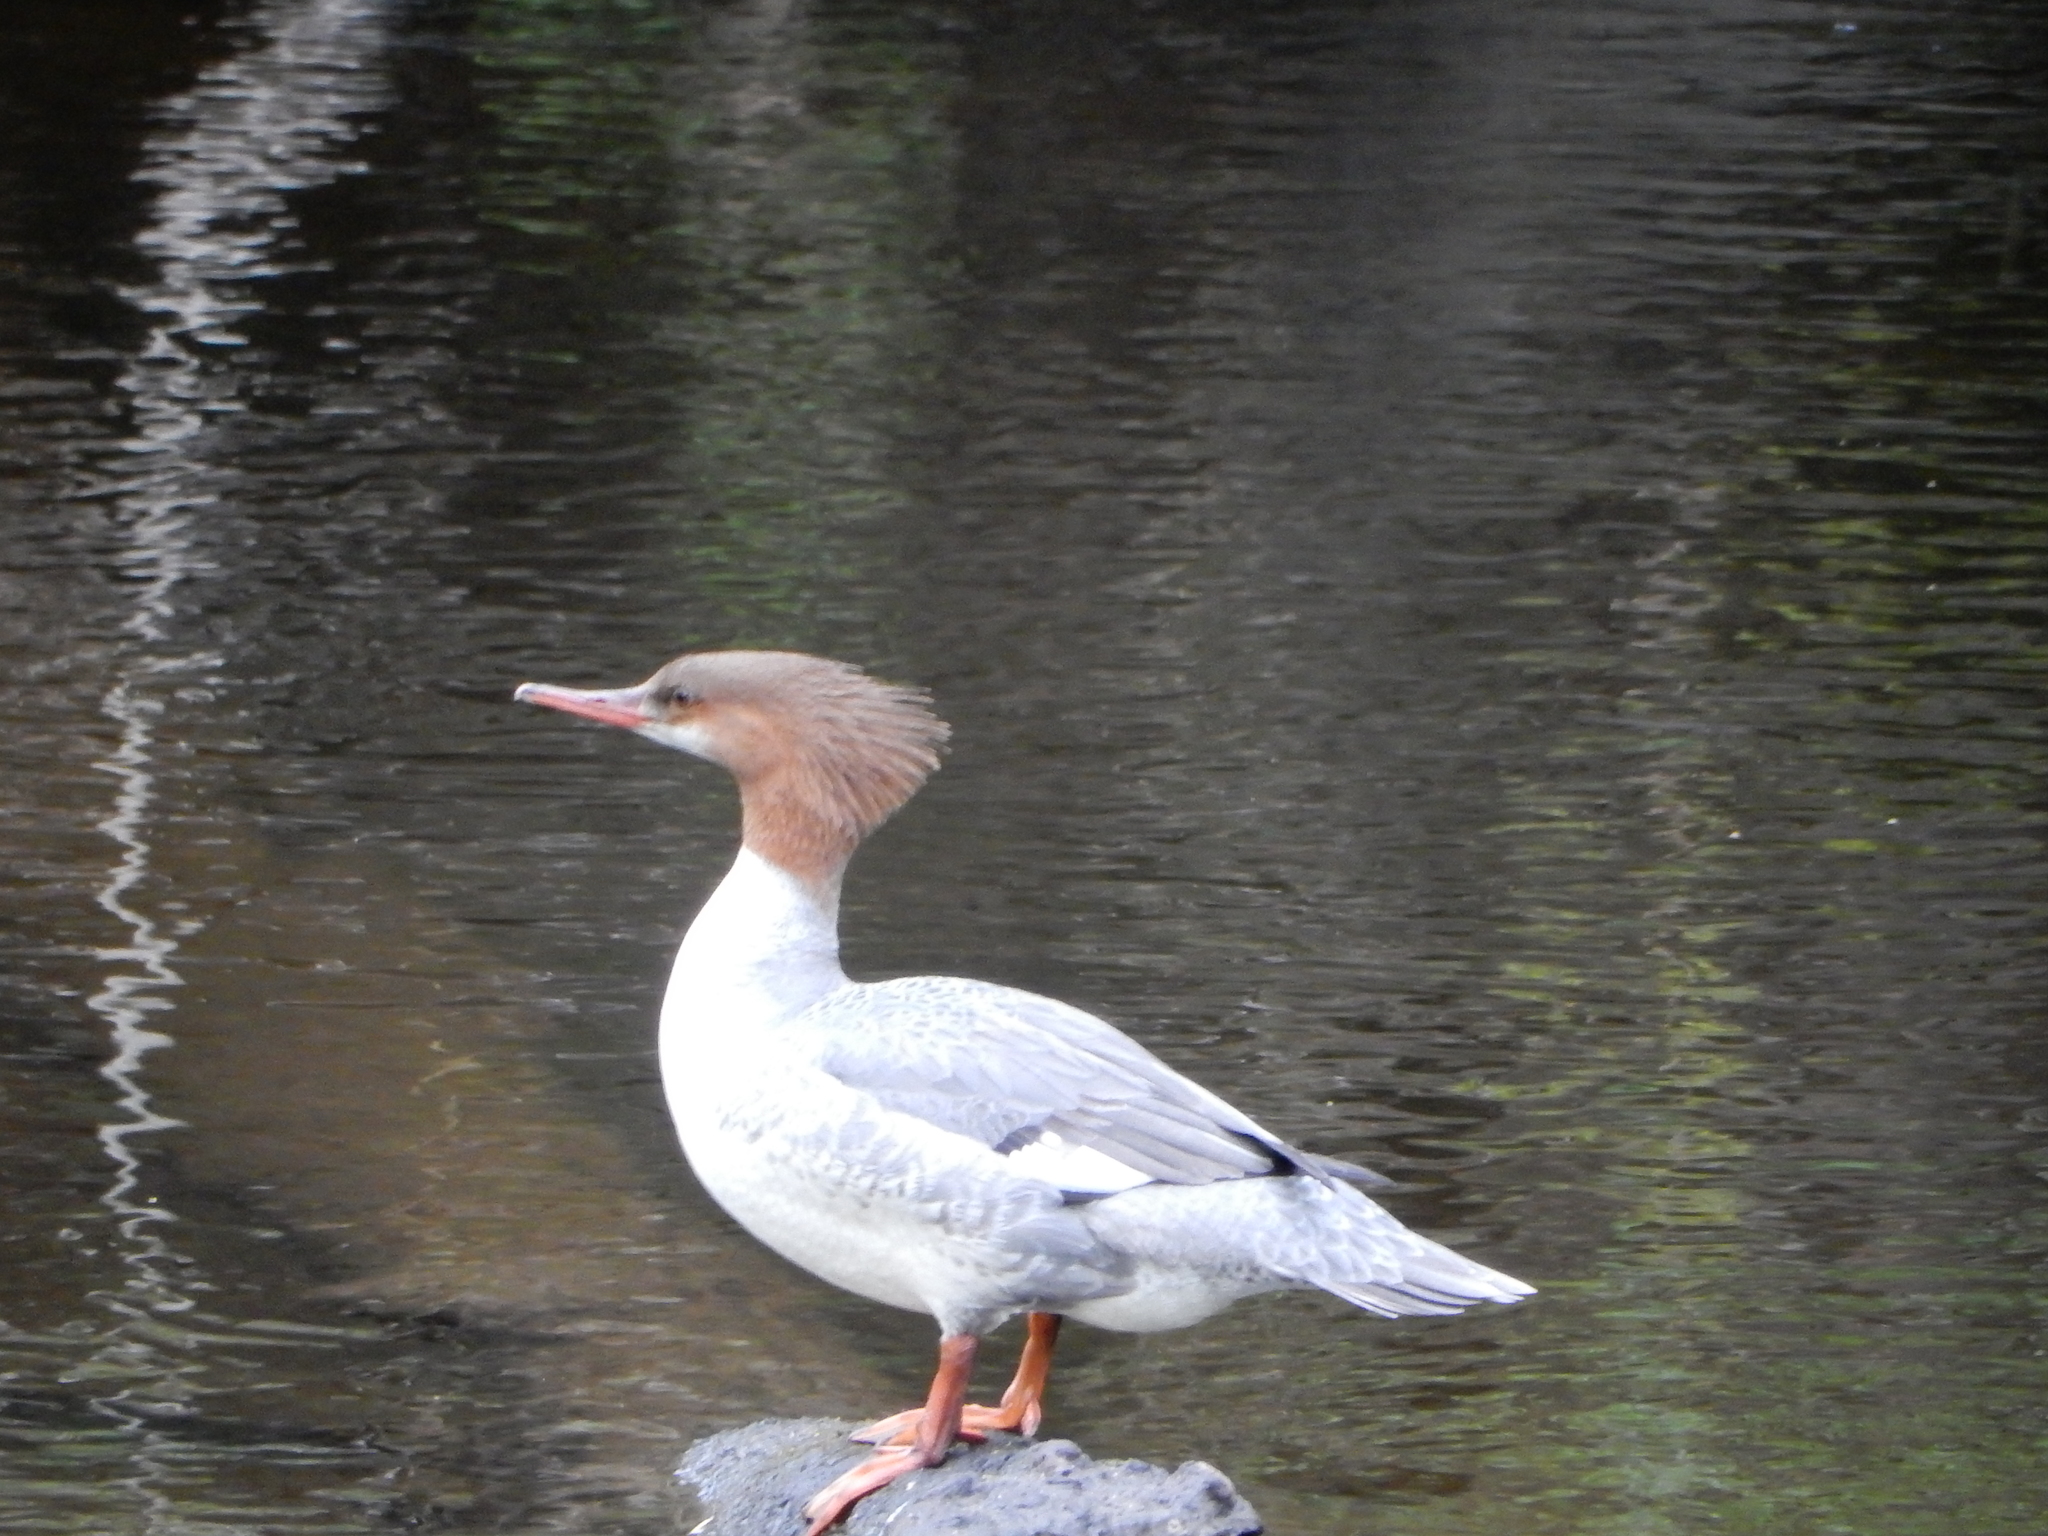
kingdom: Animalia
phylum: Chordata
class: Aves
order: Anseriformes
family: Anatidae
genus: Mergus
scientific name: Mergus merganser
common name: Common merganser
